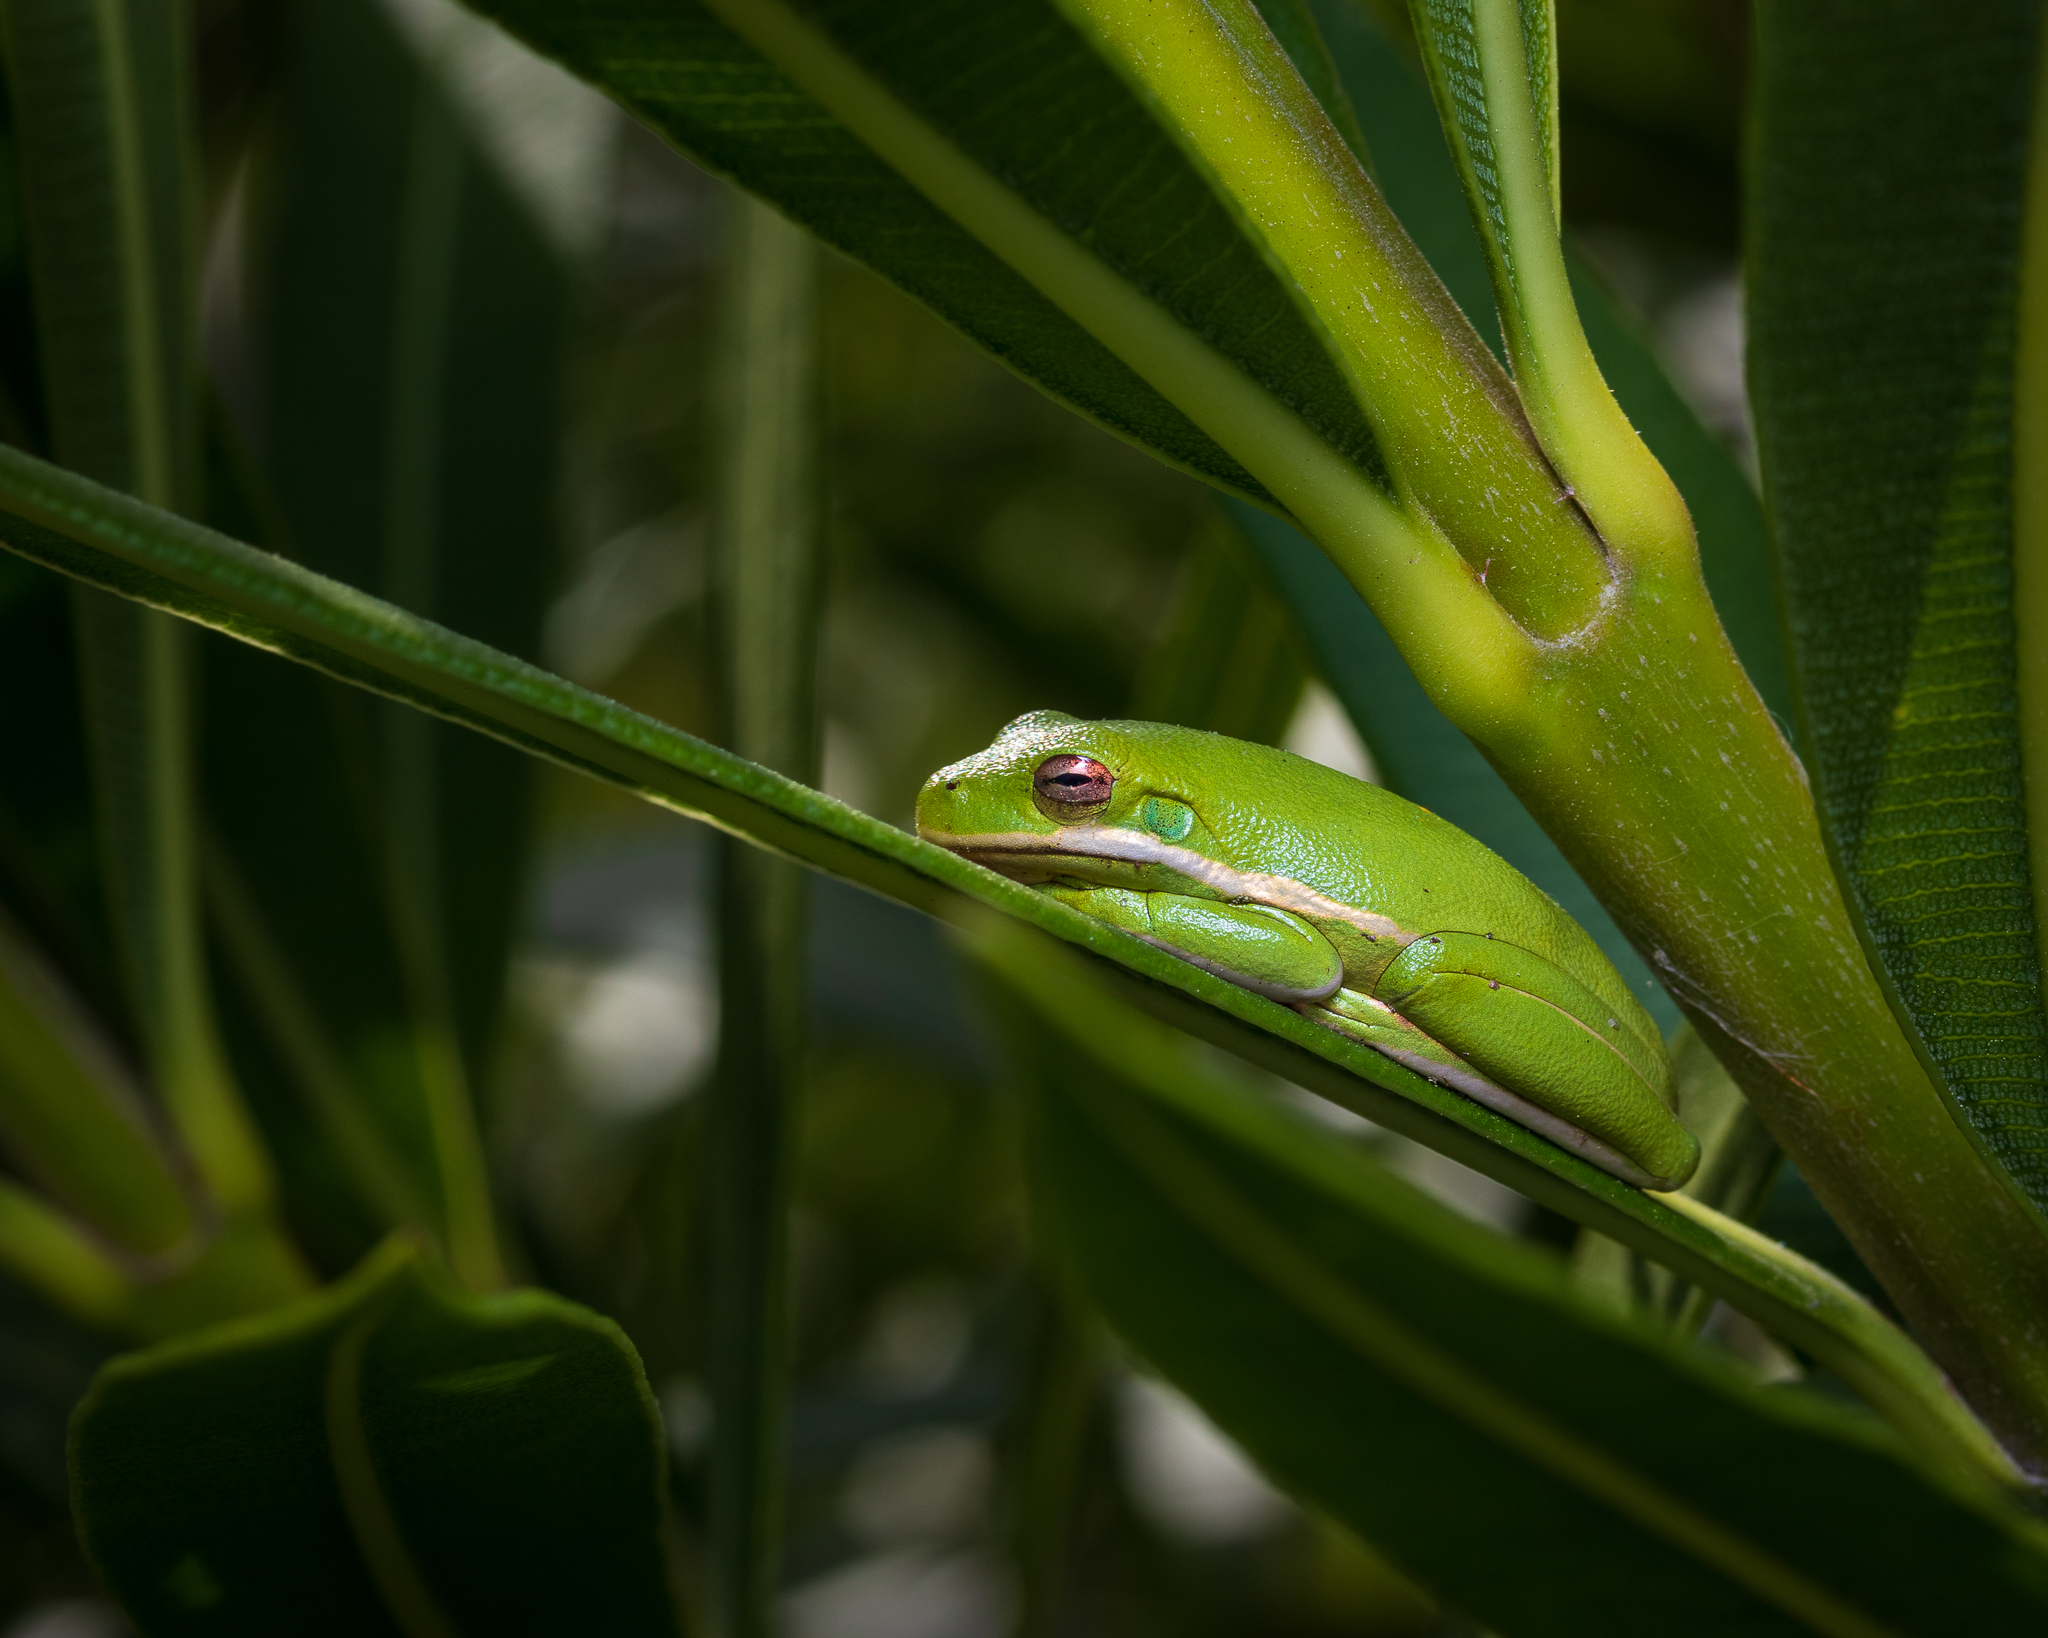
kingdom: Animalia
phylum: Chordata
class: Amphibia
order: Anura
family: Hylidae
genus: Dryophytes
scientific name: Dryophytes cinereus
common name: Green treefrog
